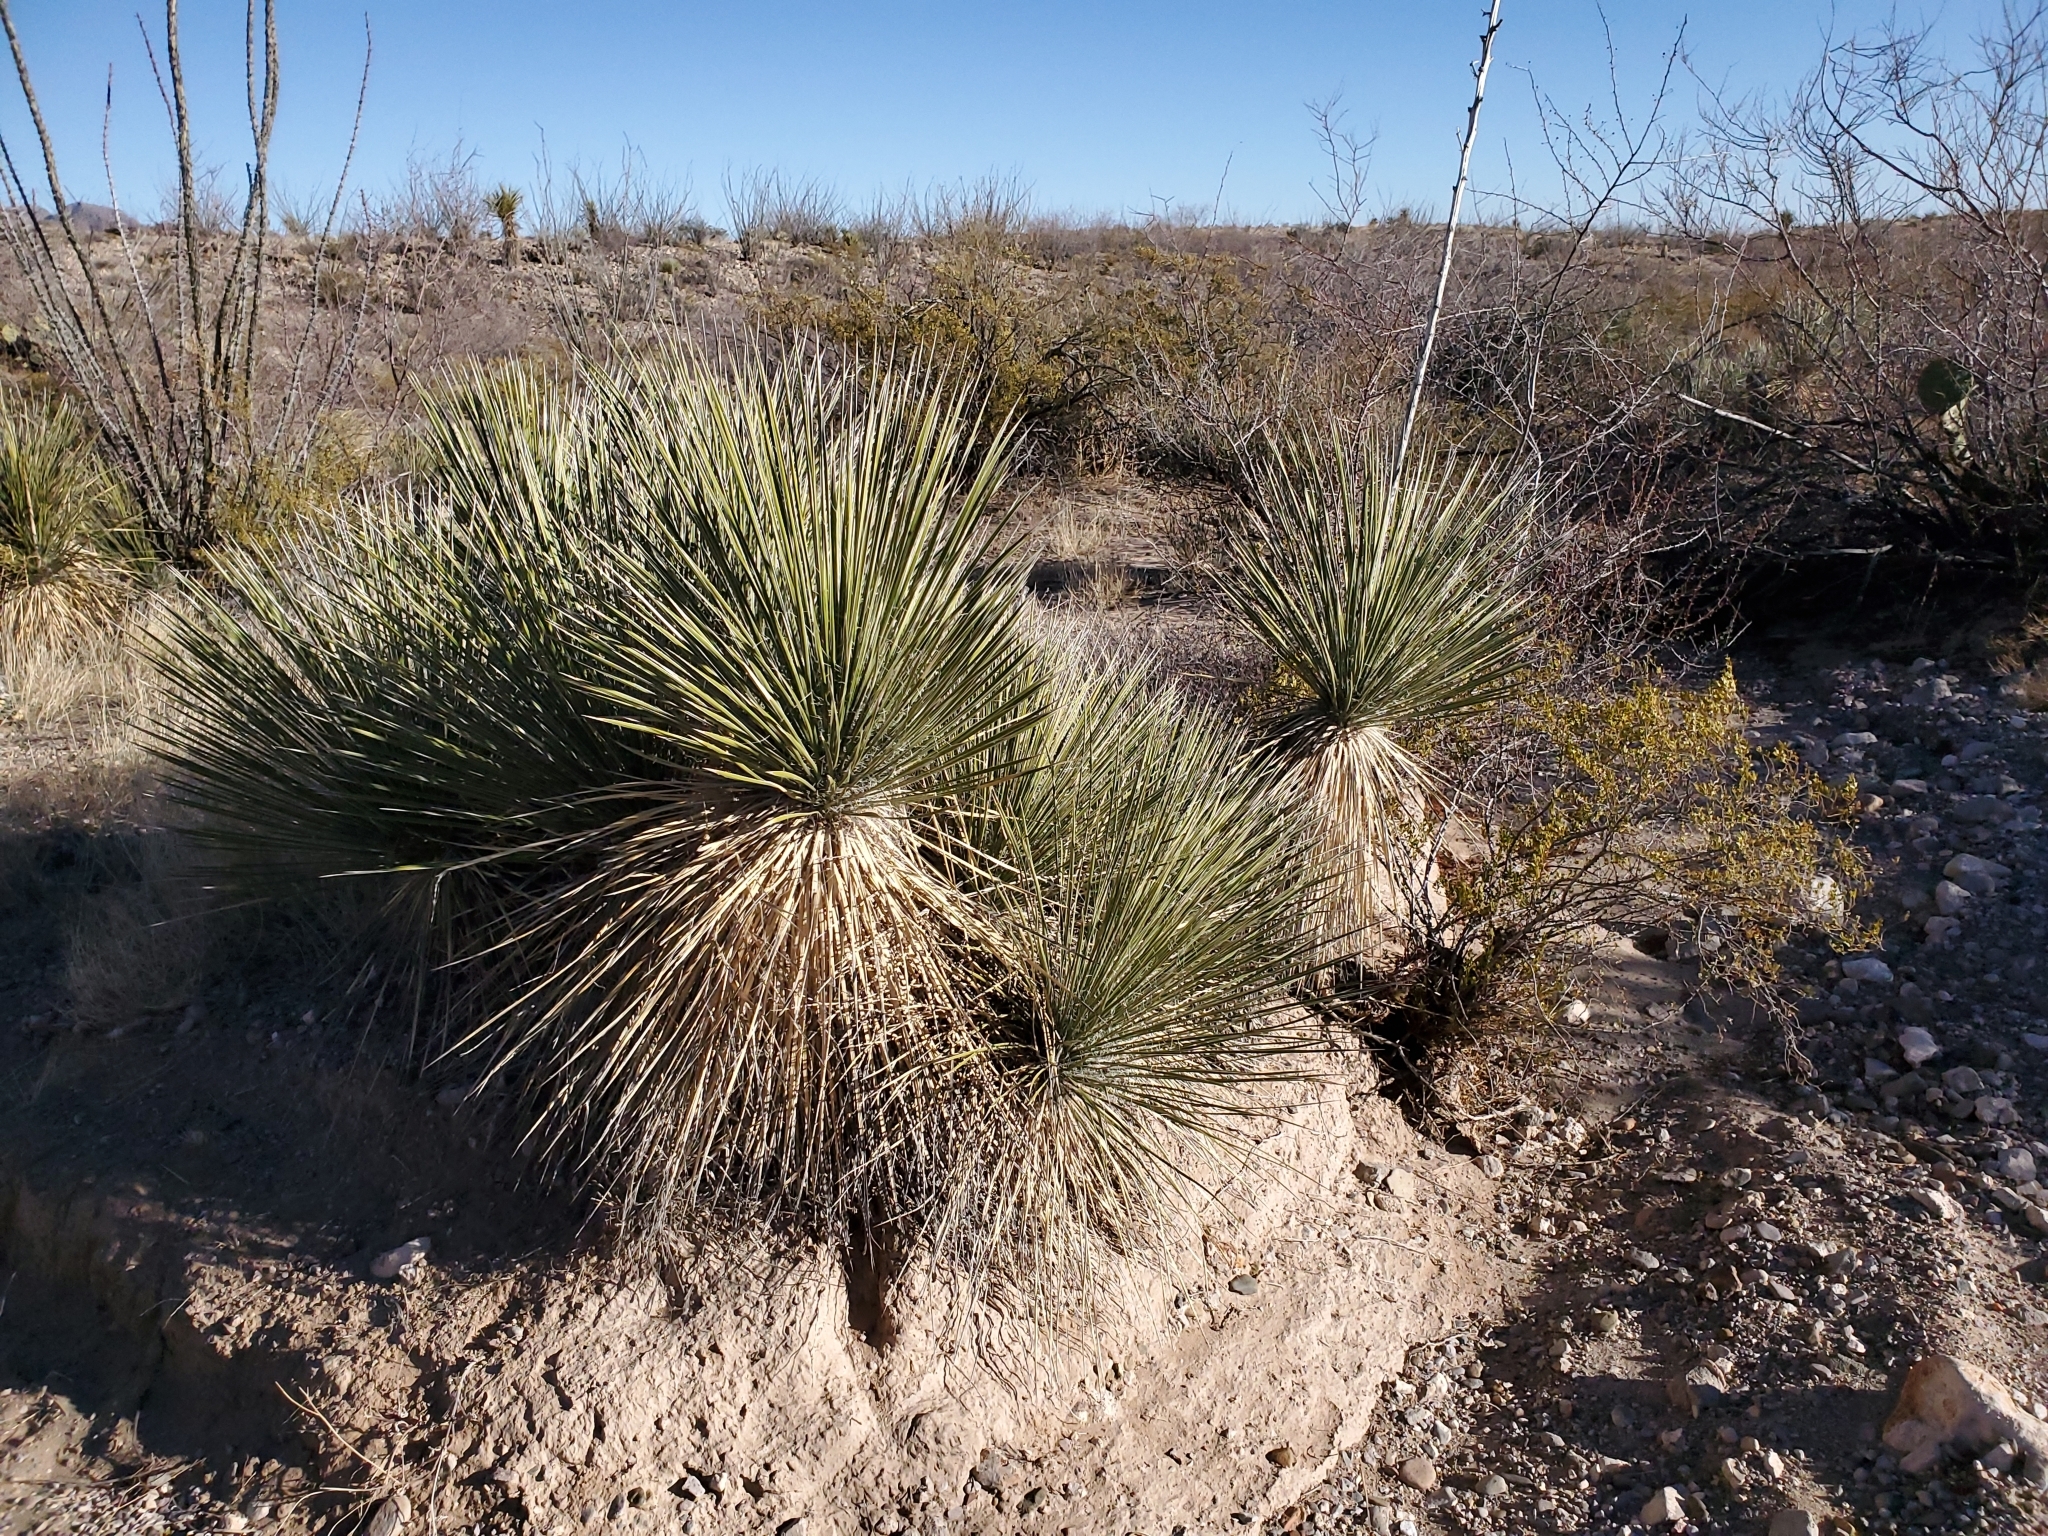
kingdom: Plantae
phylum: Tracheophyta
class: Liliopsida
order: Asparagales
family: Asparagaceae
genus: Yucca
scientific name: Yucca elata
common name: Palmella
